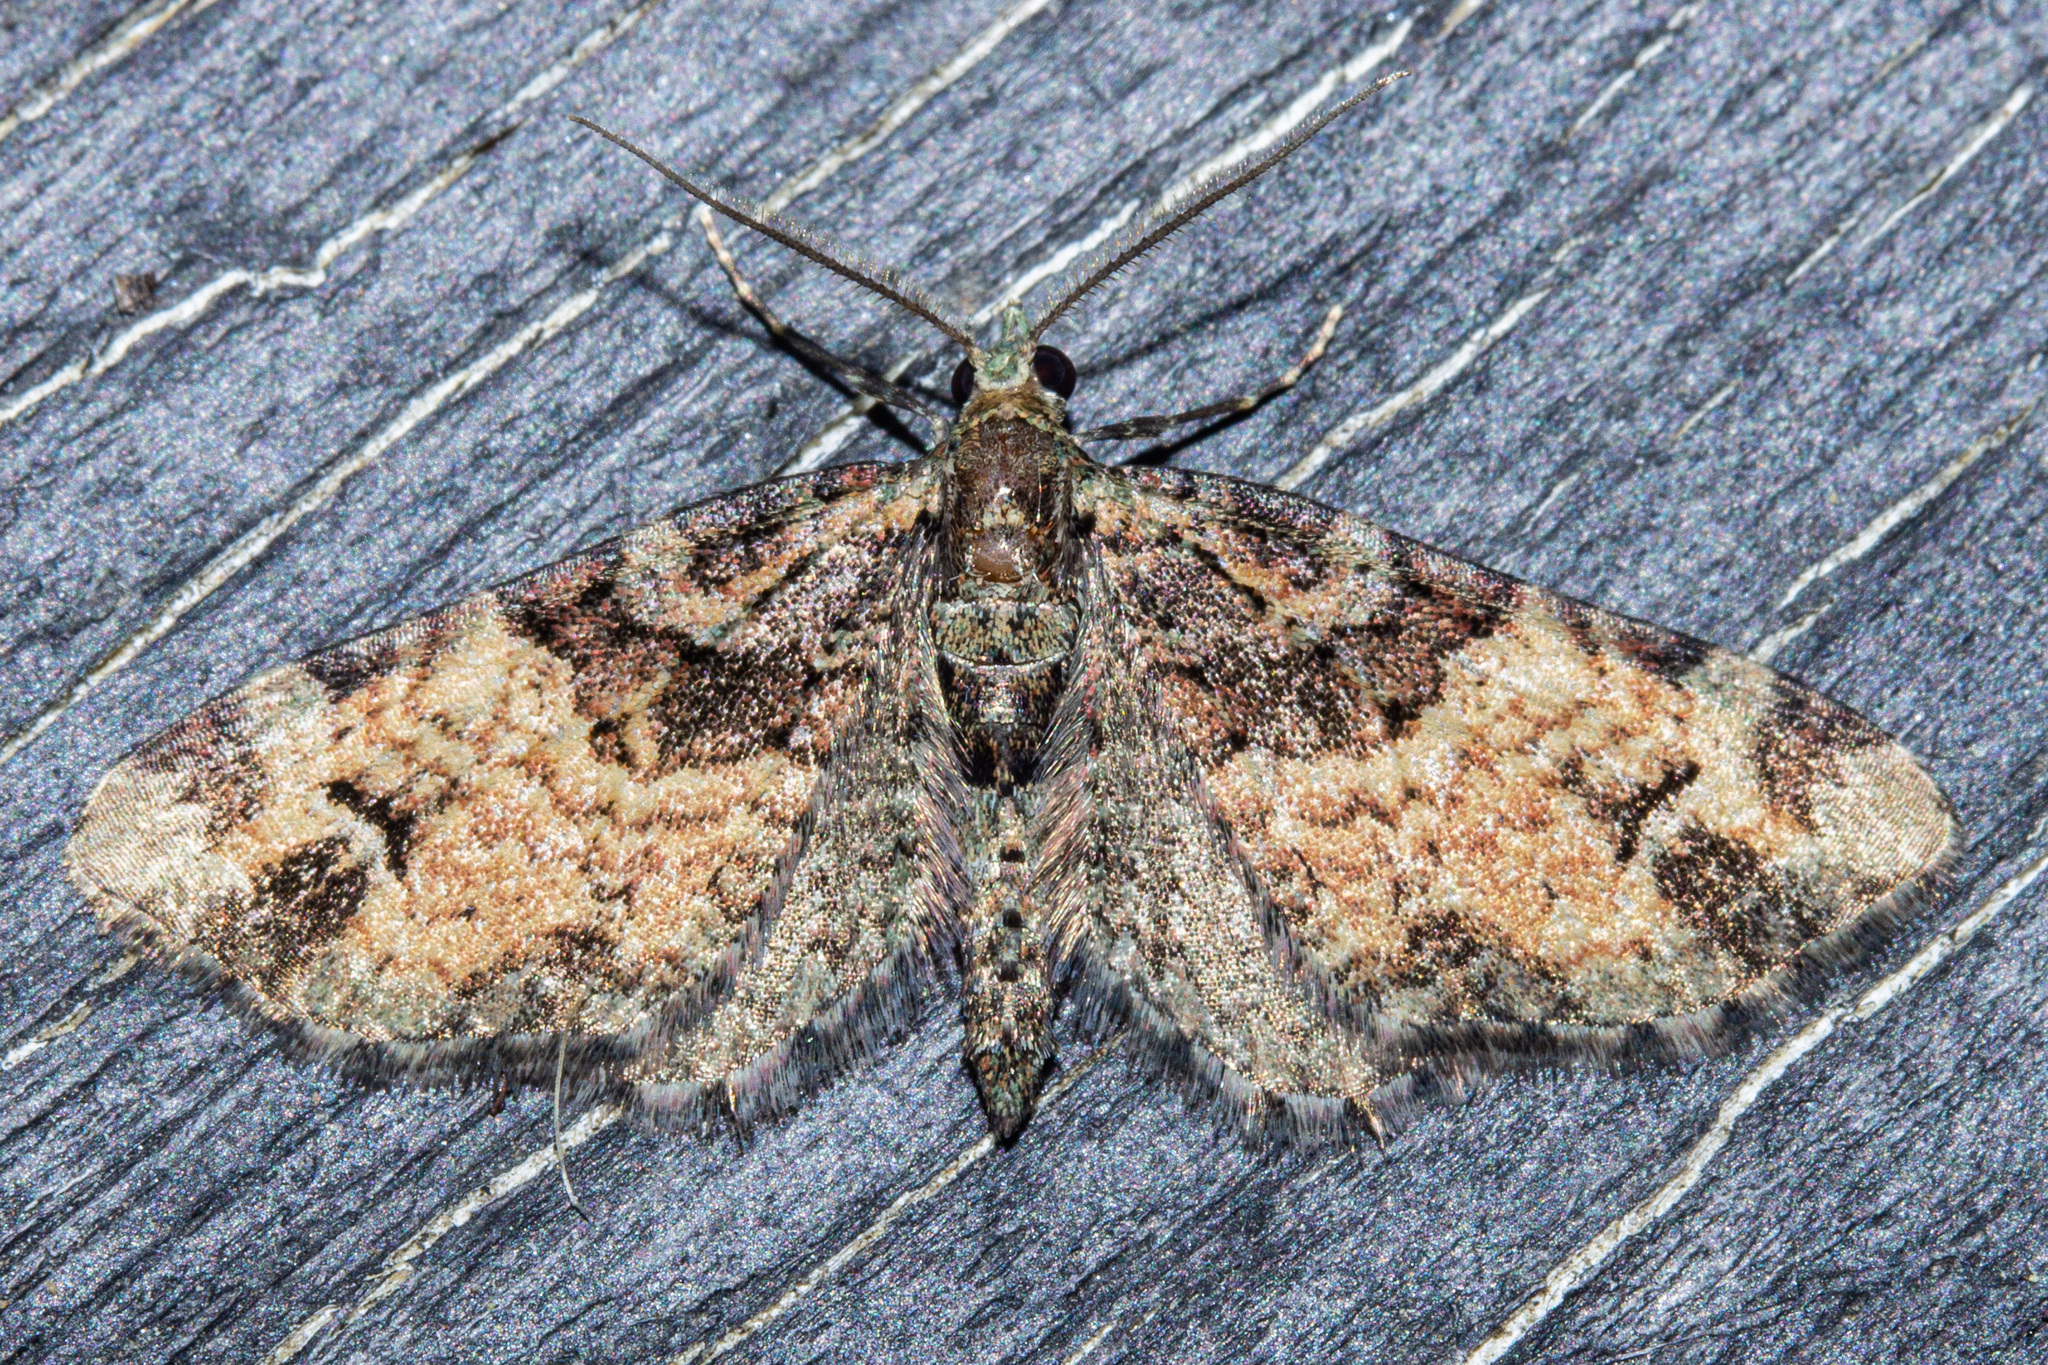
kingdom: Animalia
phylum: Arthropoda
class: Insecta
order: Lepidoptera
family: Geometridae
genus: Pasiphila
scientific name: Pasiphila bilineolata
